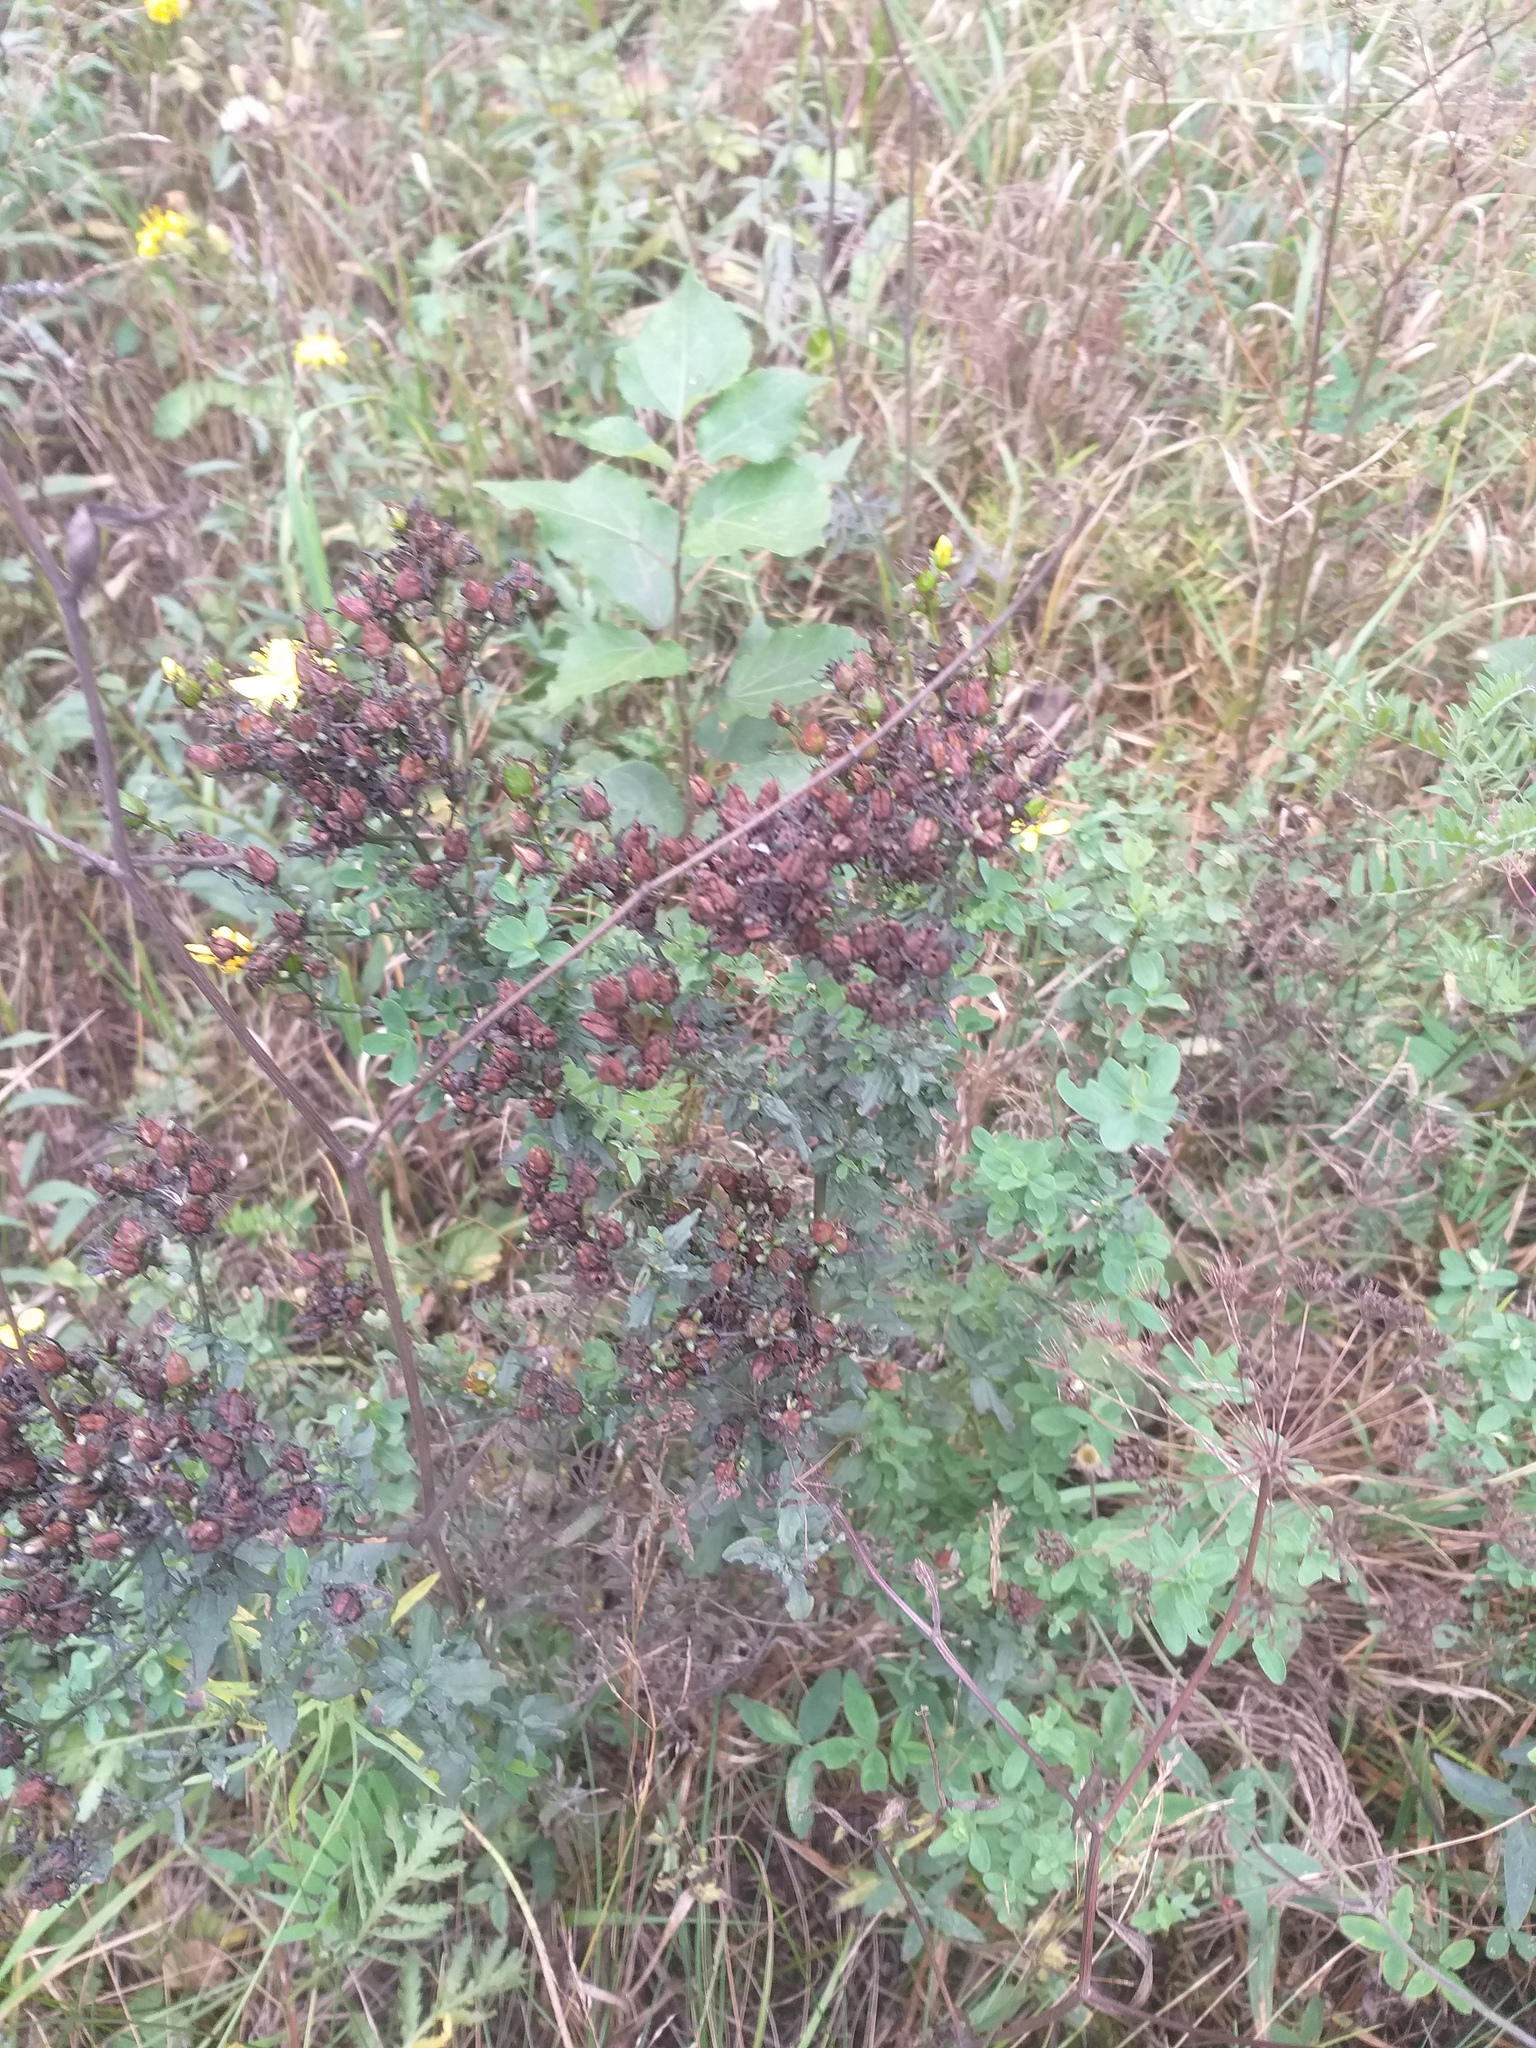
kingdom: Plantae
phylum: Tracheophyta
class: Magnoliopsida
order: Malpighiales
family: Hypericaceae
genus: Hypericum
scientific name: Hypericum perforatum
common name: Common st. johnswort
